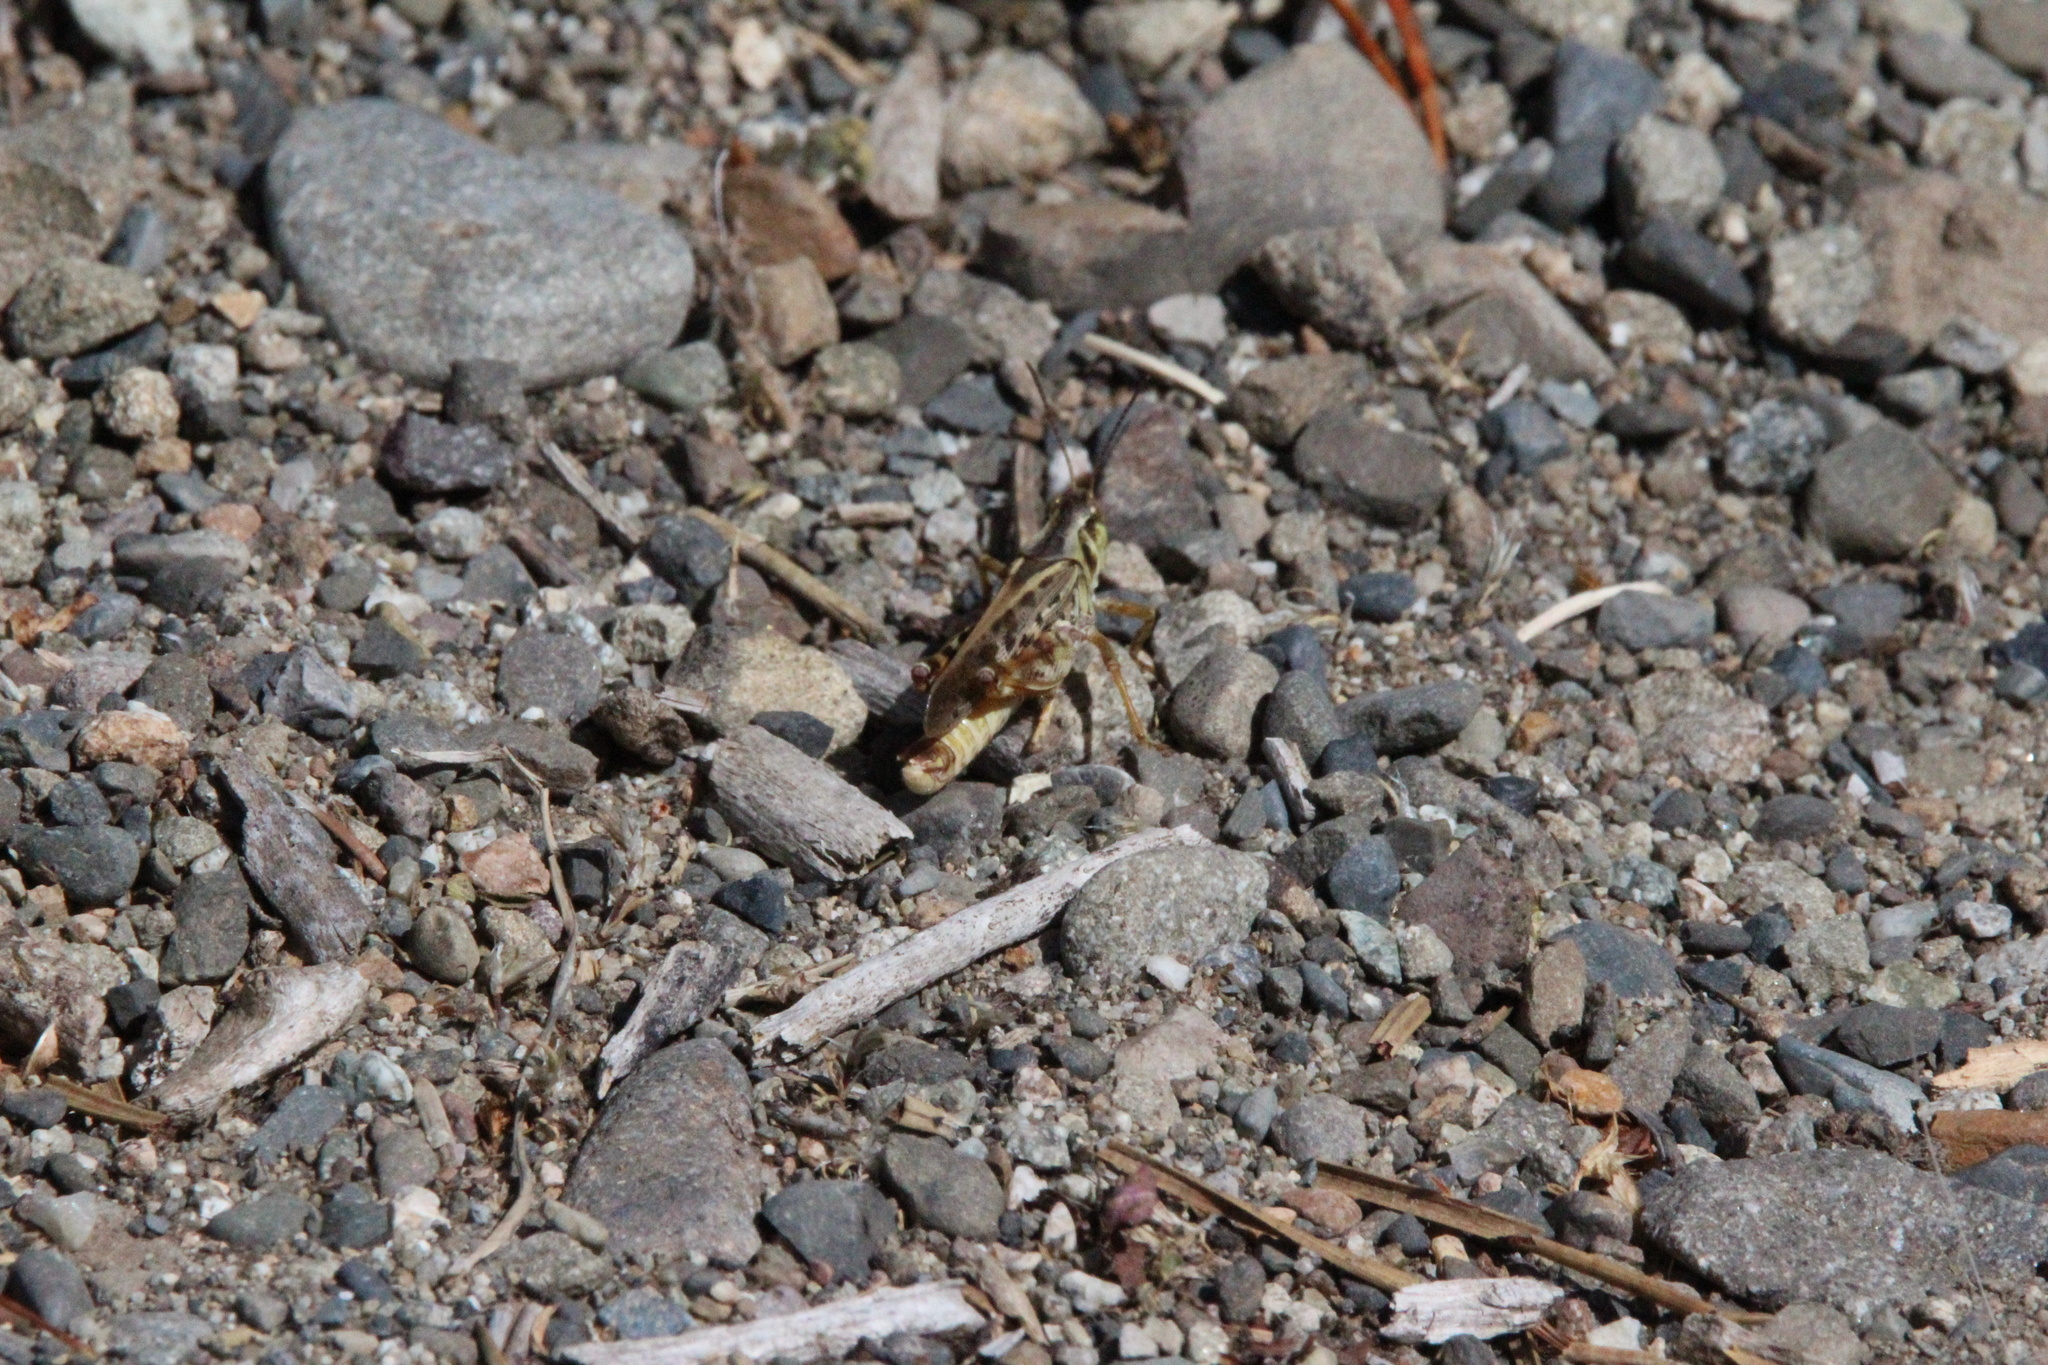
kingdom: Animalia
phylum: Arthropoda
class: Insecta
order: Orthoptera
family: Acrididae
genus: Camnula
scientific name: Camnula pellucida
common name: Clear-winged grasshopper
